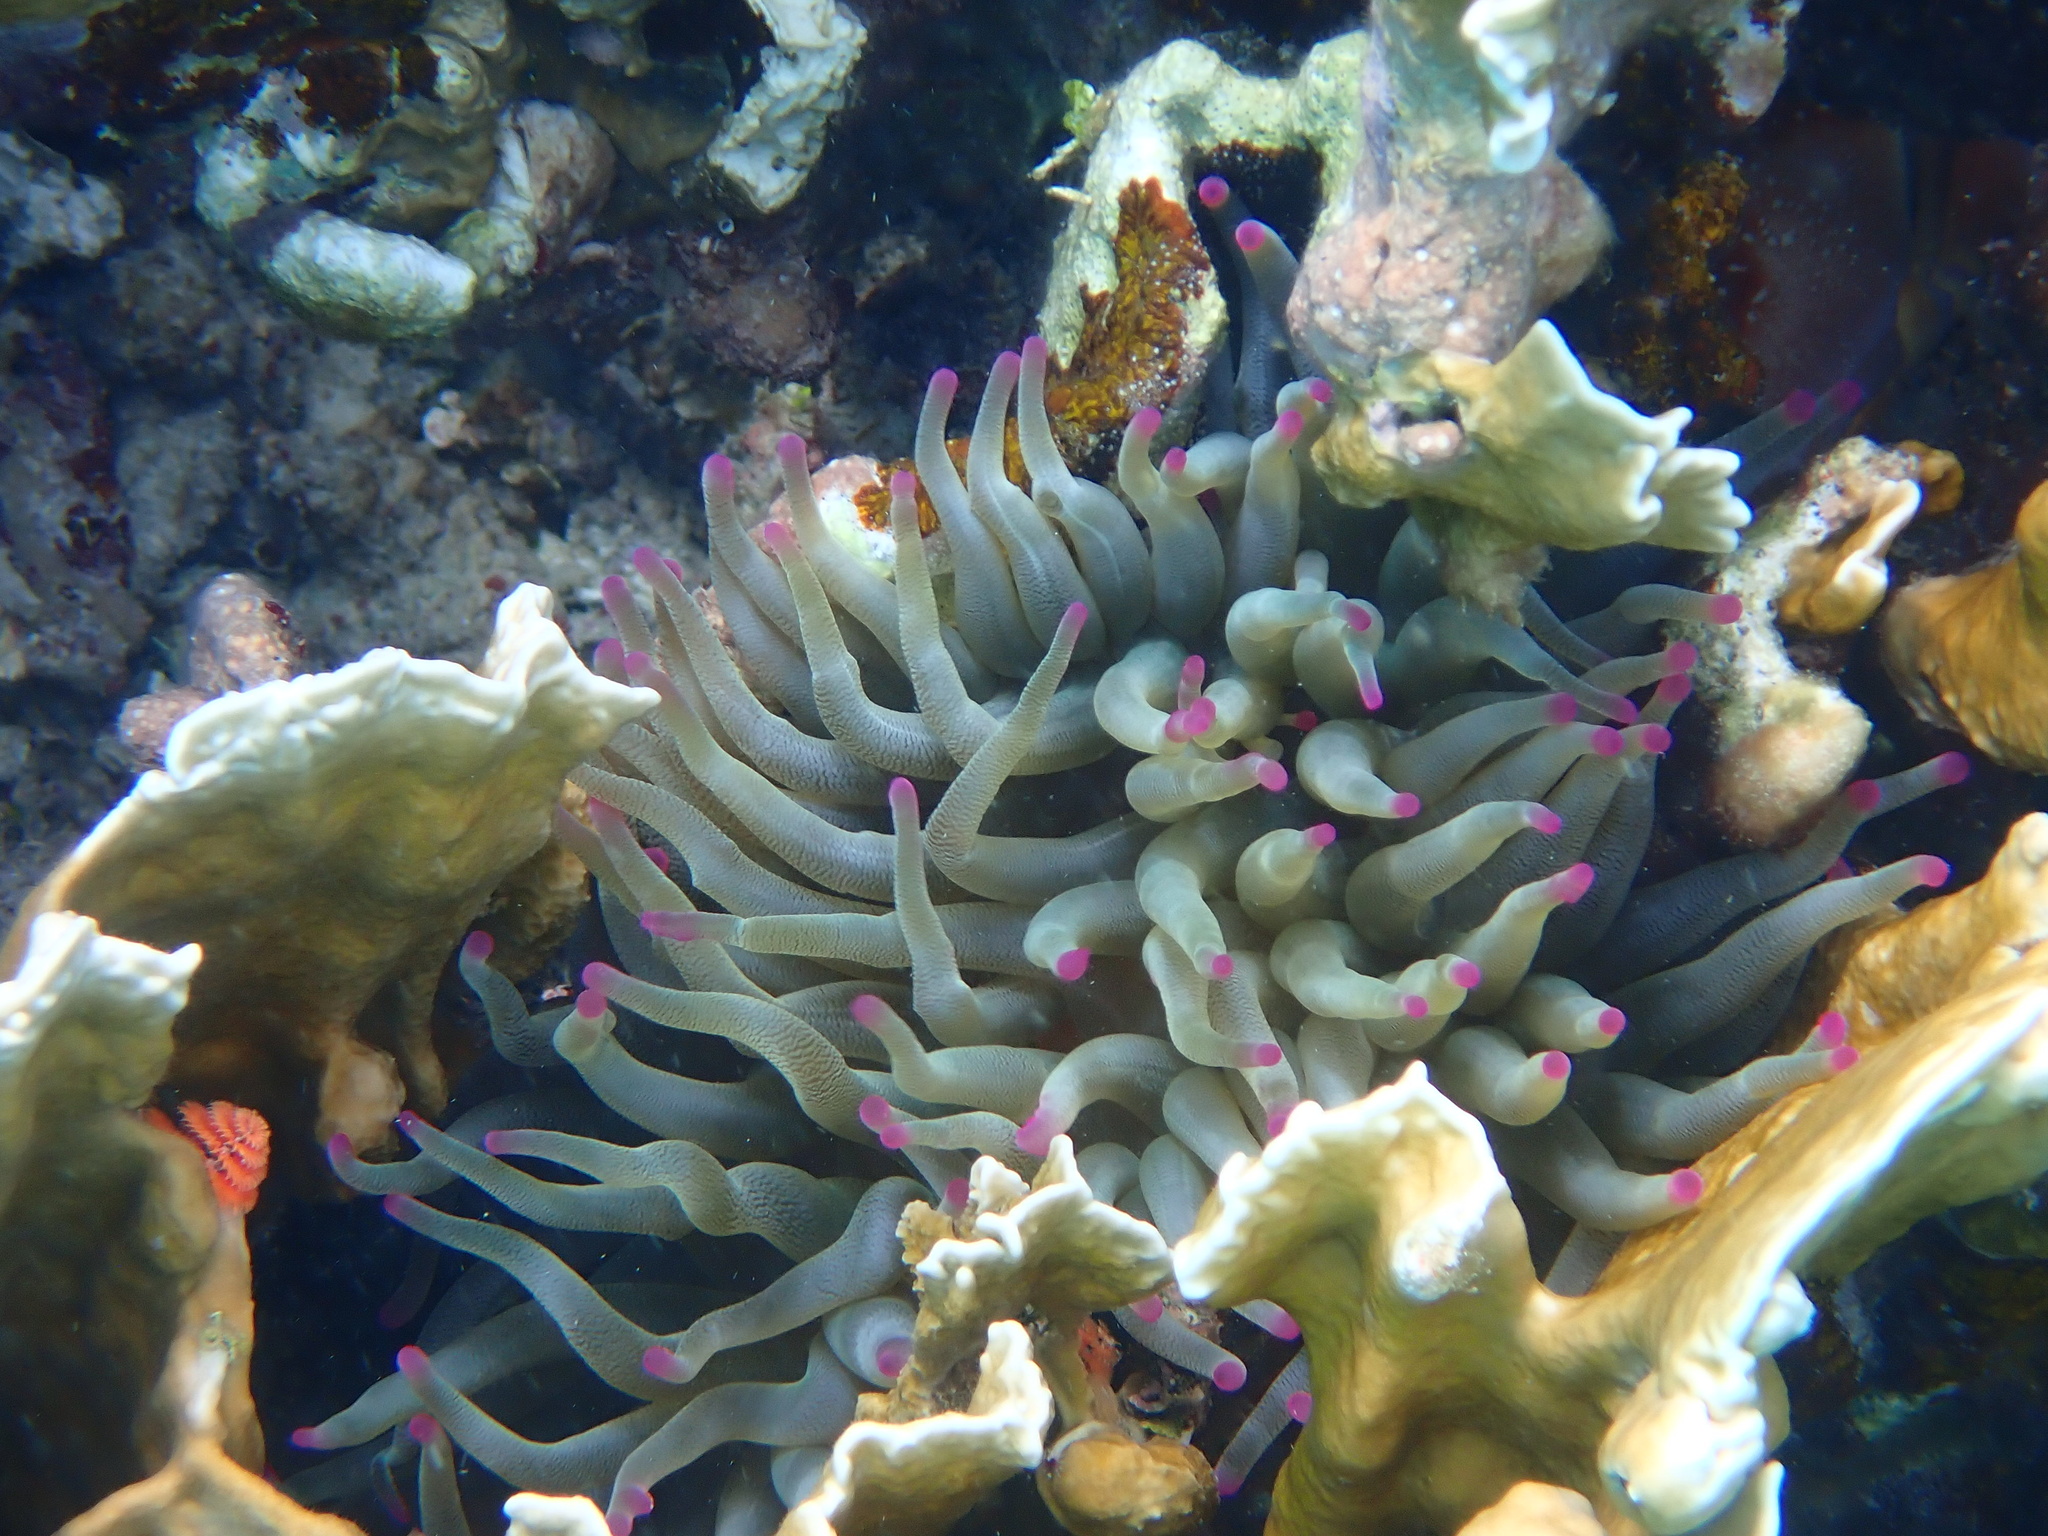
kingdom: Animalia
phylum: Cnidaria
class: Anthozoa
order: Actiniaria
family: Actiniidae
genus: Condylactis
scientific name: Condylactis gigantea
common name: Giant caribbean anemone
